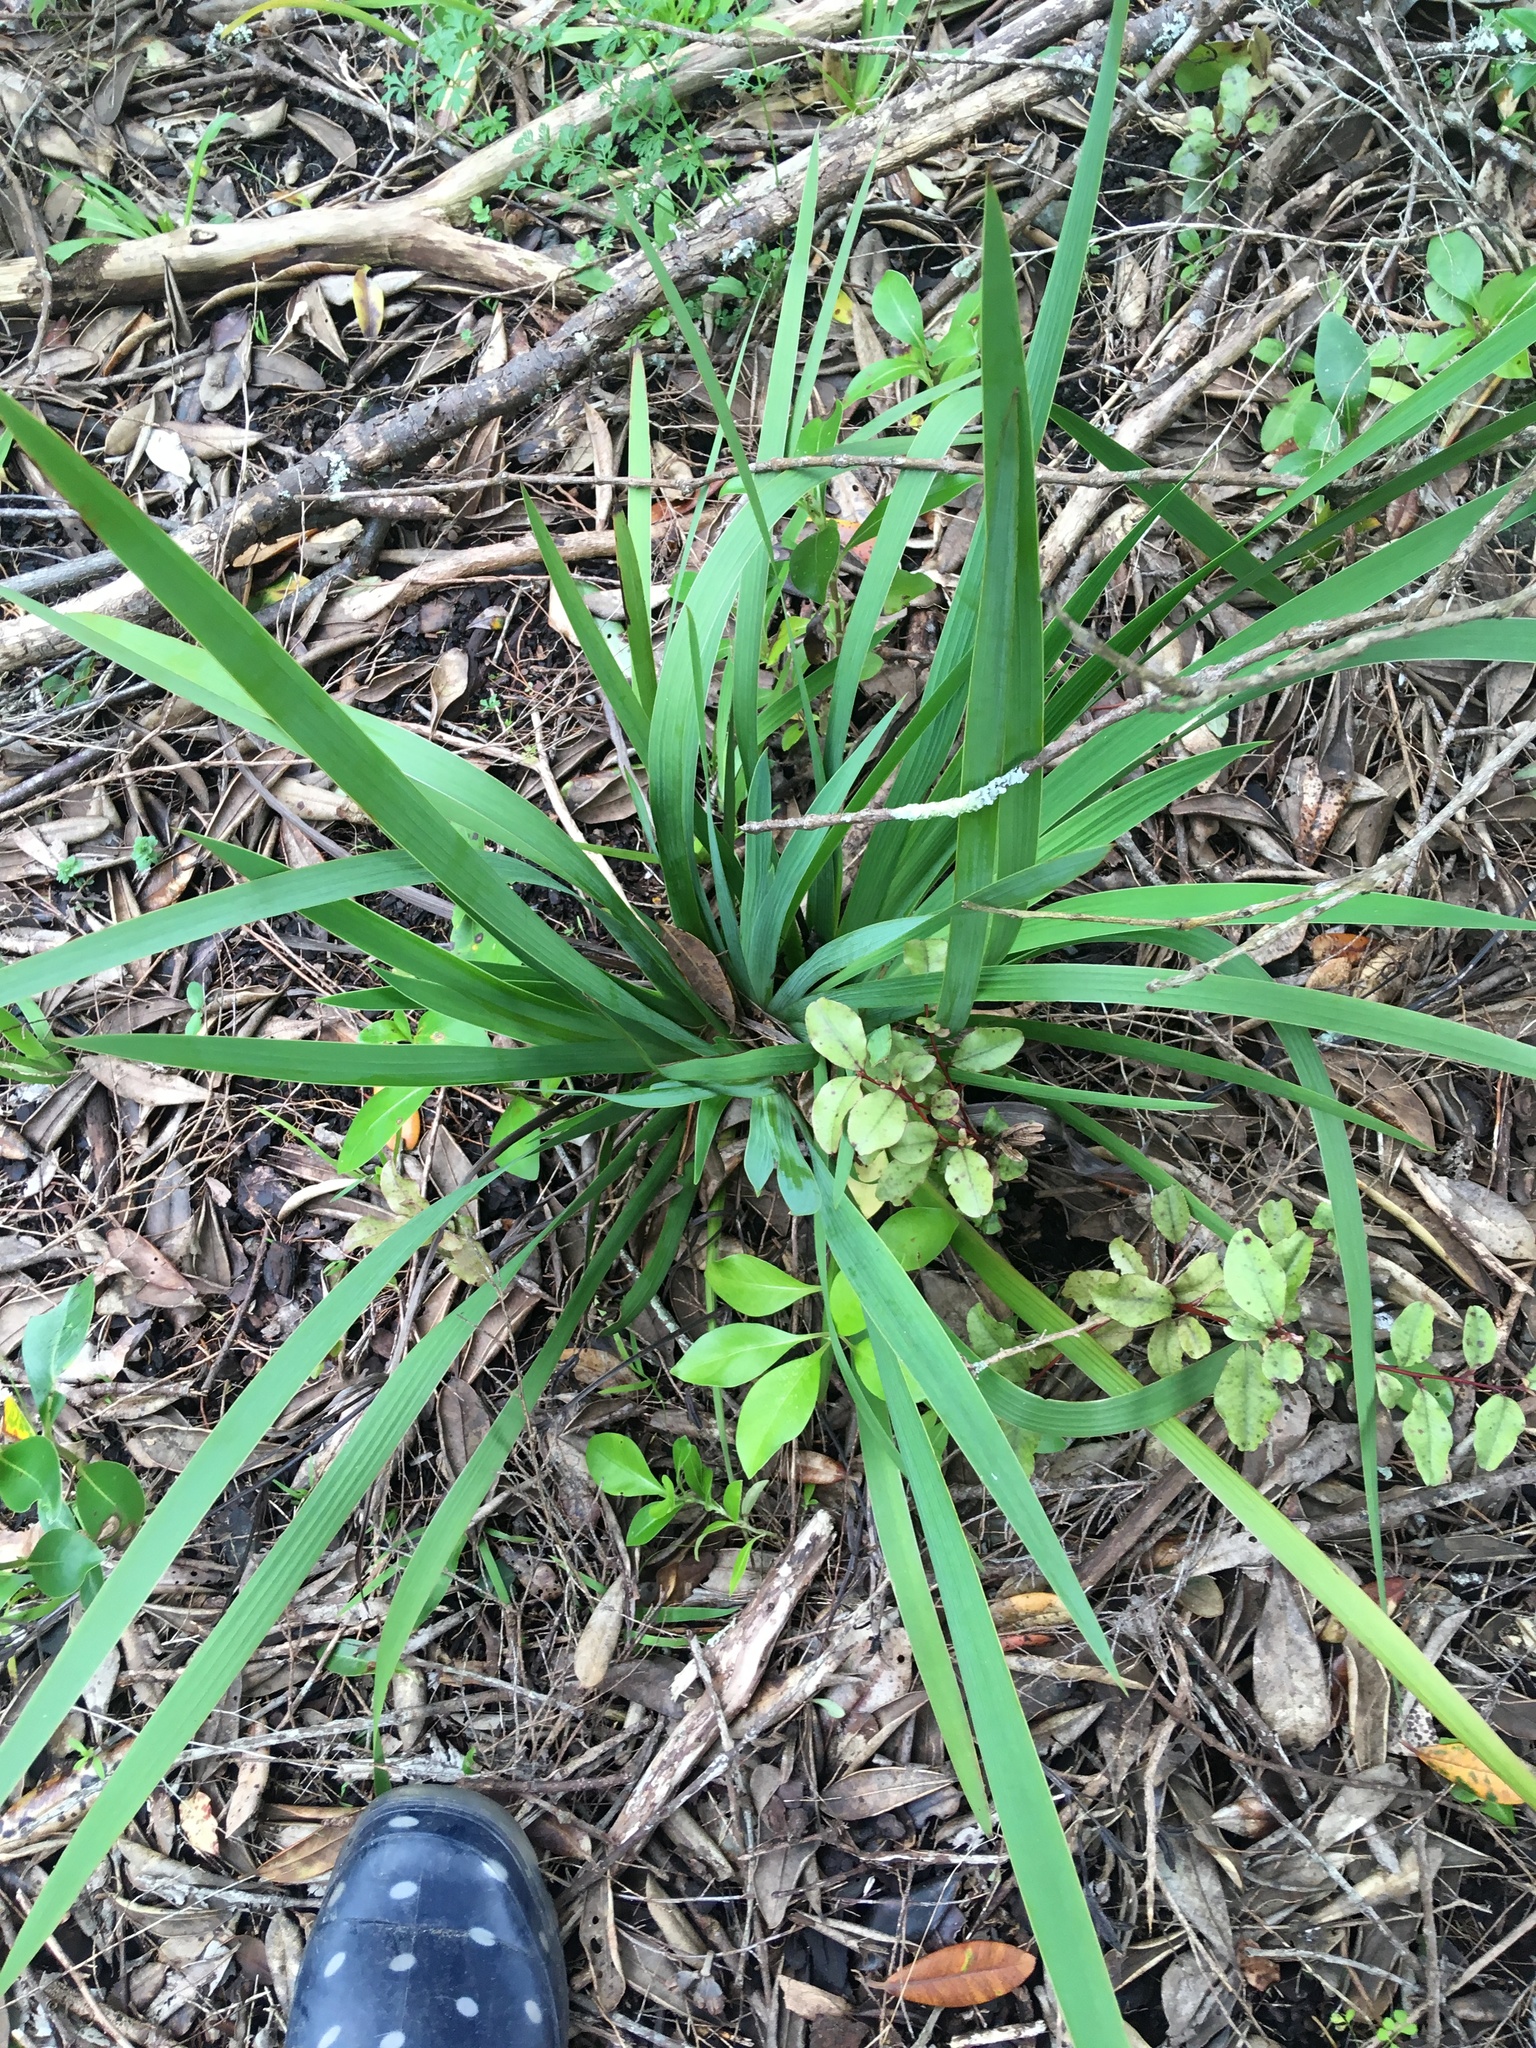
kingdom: Plantae
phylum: Tracheophyta
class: Liliopsida
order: Asparagales
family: Iridaceae
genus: Aristea
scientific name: Aristea ecklonii
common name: Blue corn-lily
